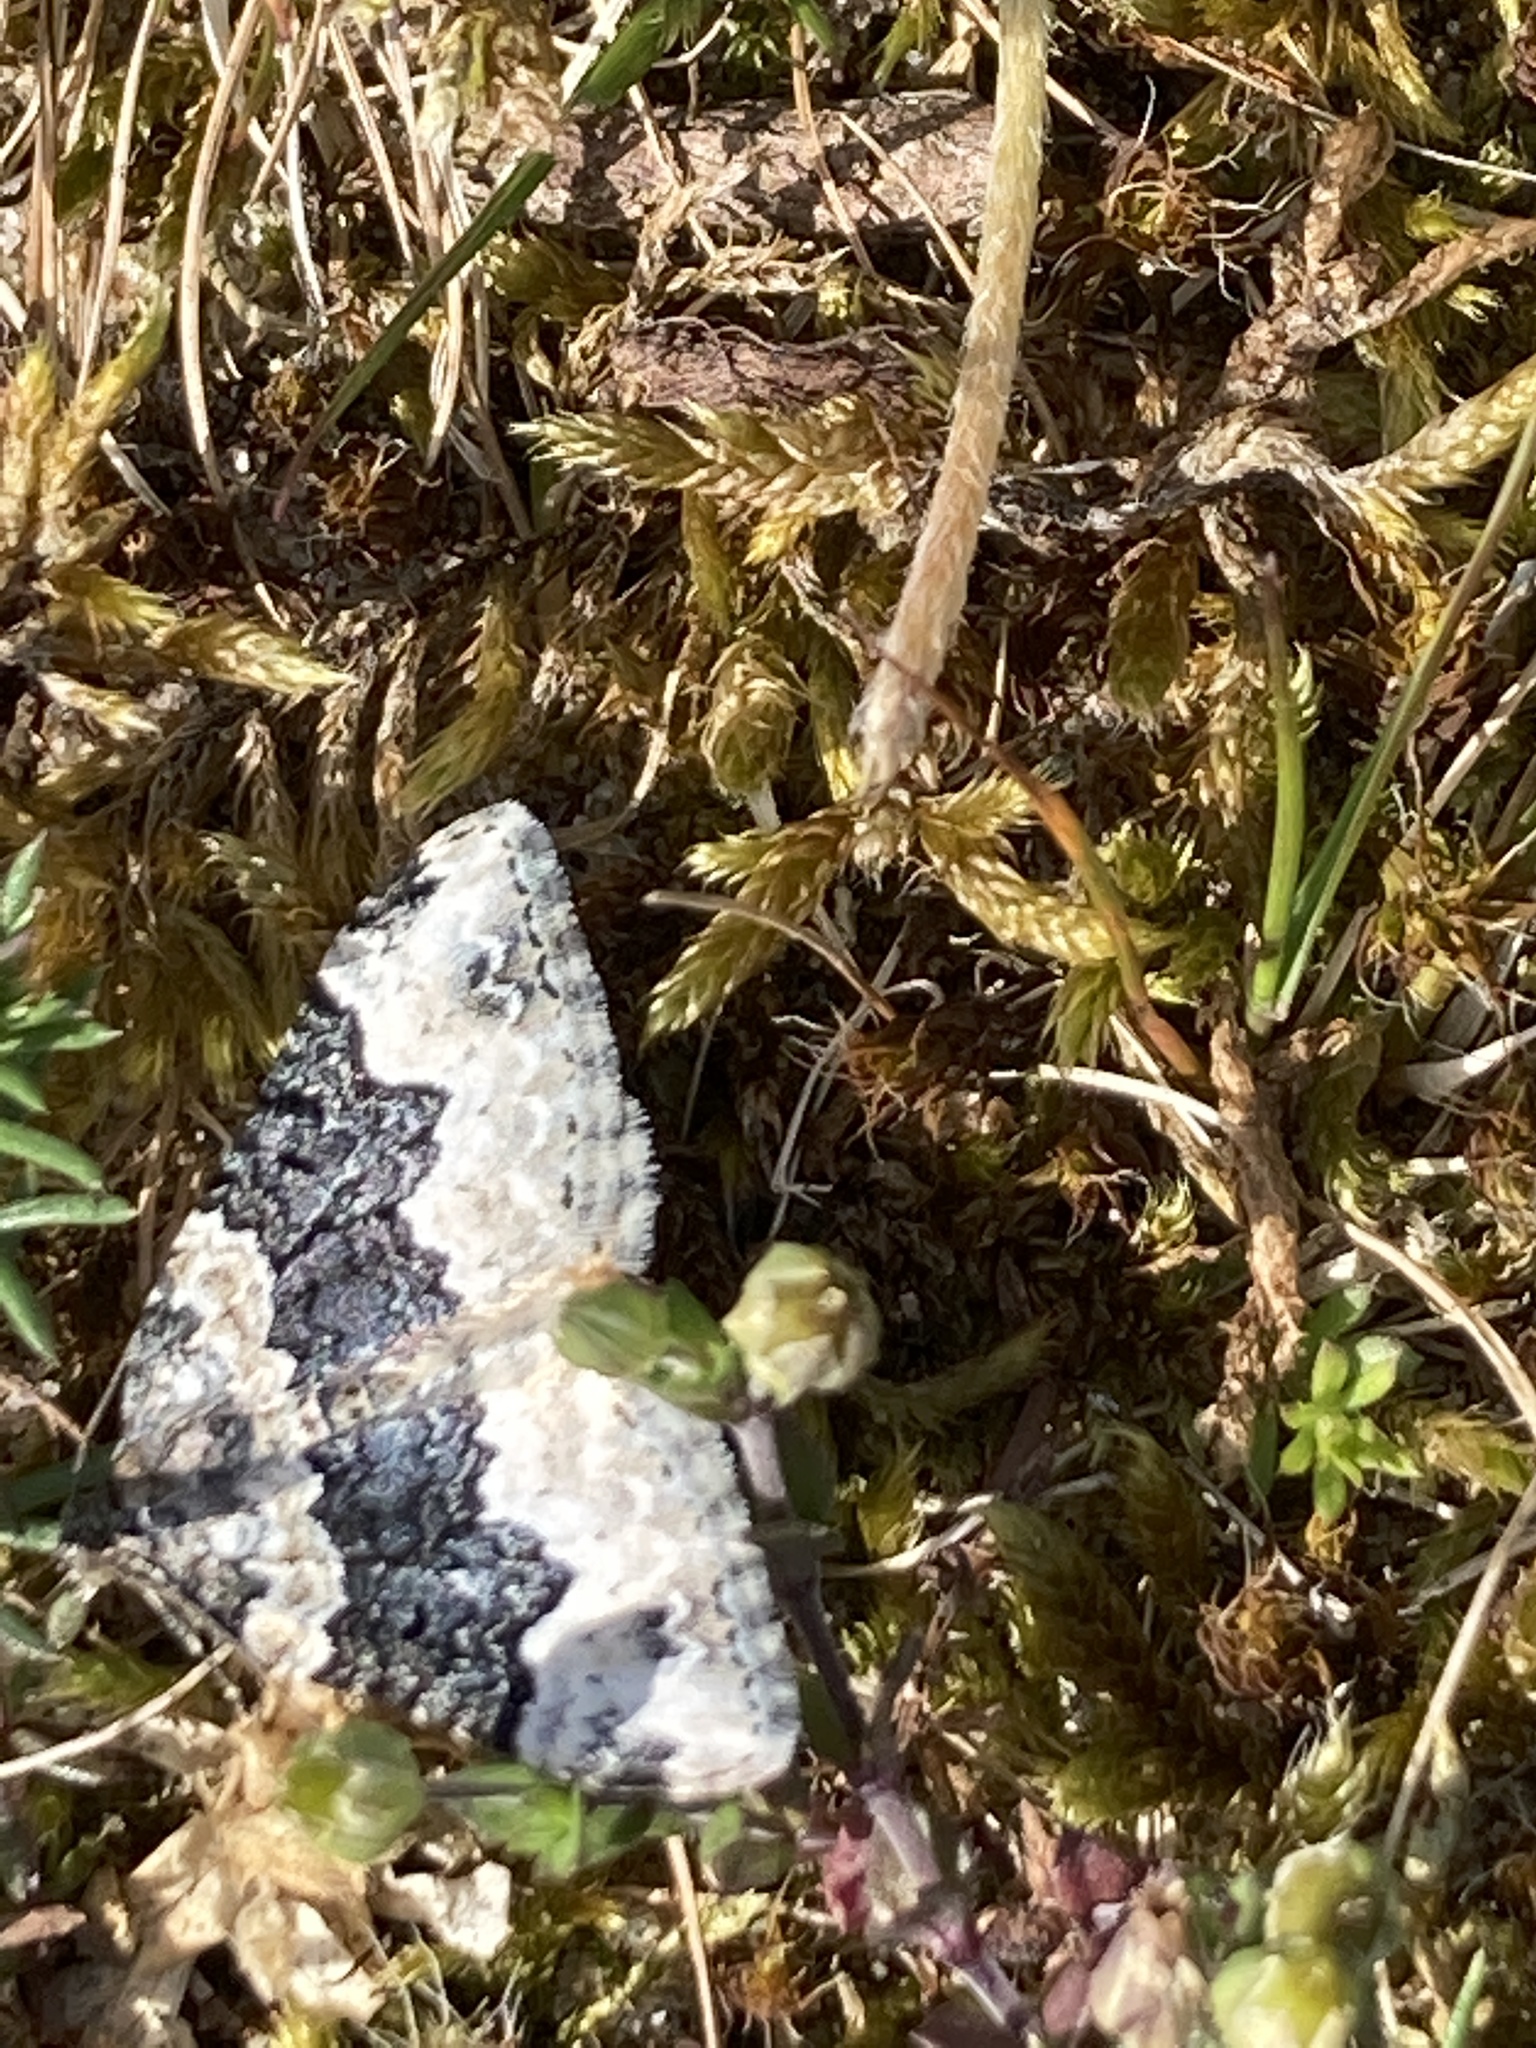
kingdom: Animalia
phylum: Arthropoda
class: Insecta
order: Lepidoptera
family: Geometridae
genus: Epirrhoe
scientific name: Epirrhoe galiata
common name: Galium carpet
